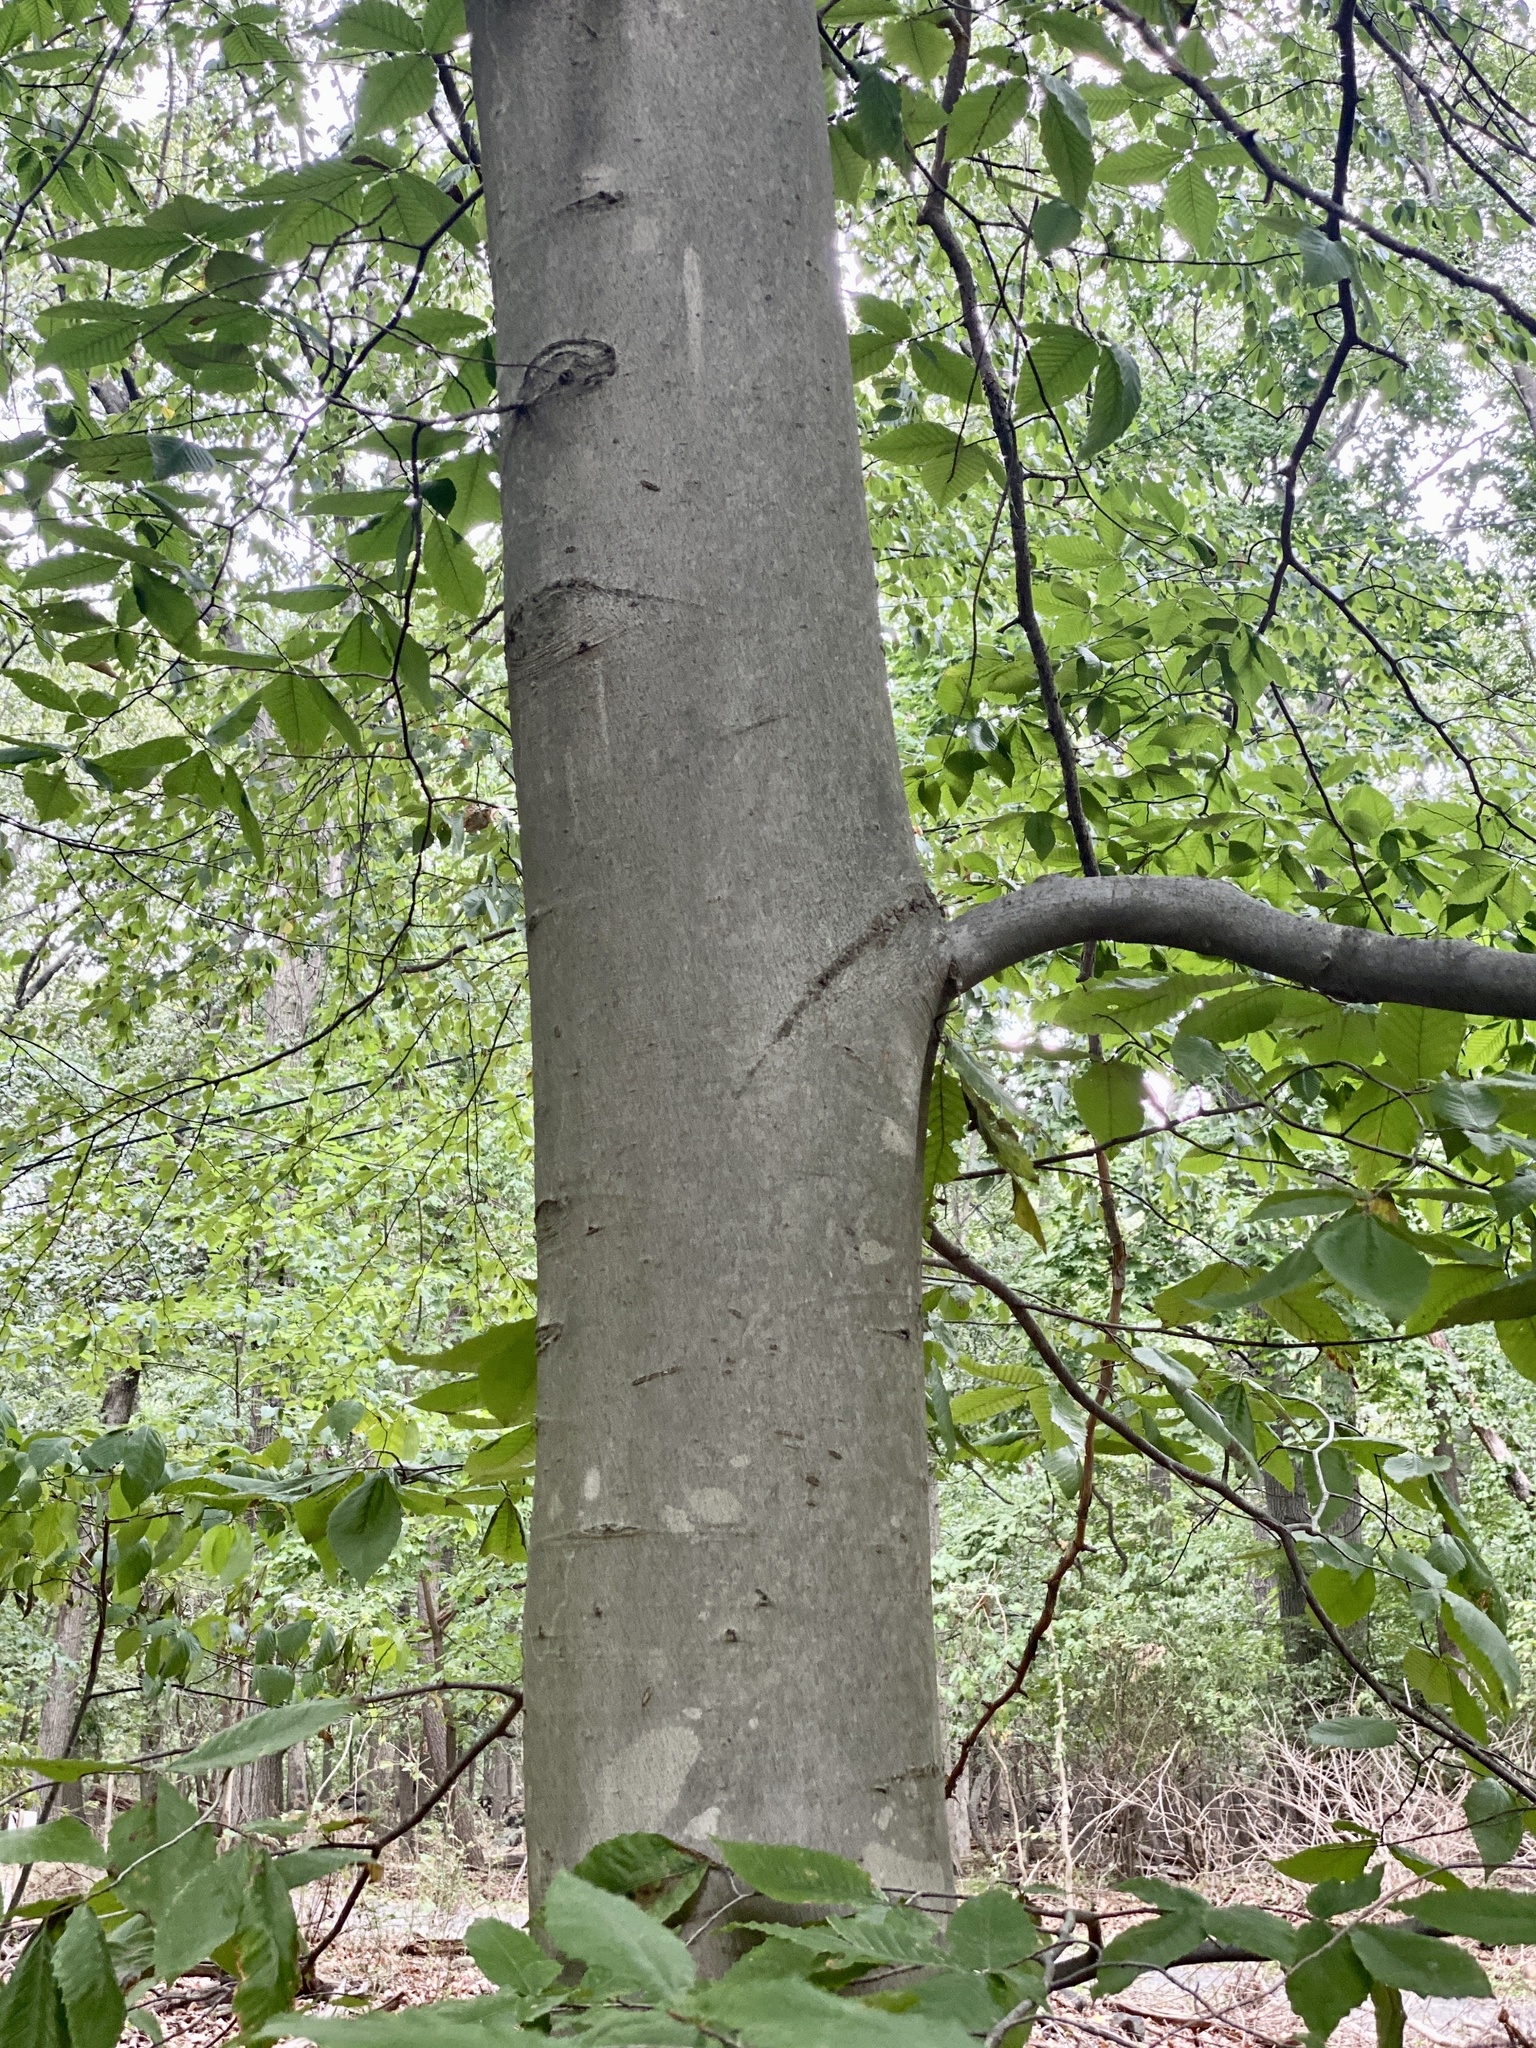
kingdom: Plantae
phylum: Tracheophyta
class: Magnoliopsida
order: Fagales
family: Fagaceae
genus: Fagus
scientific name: Fagus grandifolia
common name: American beech
